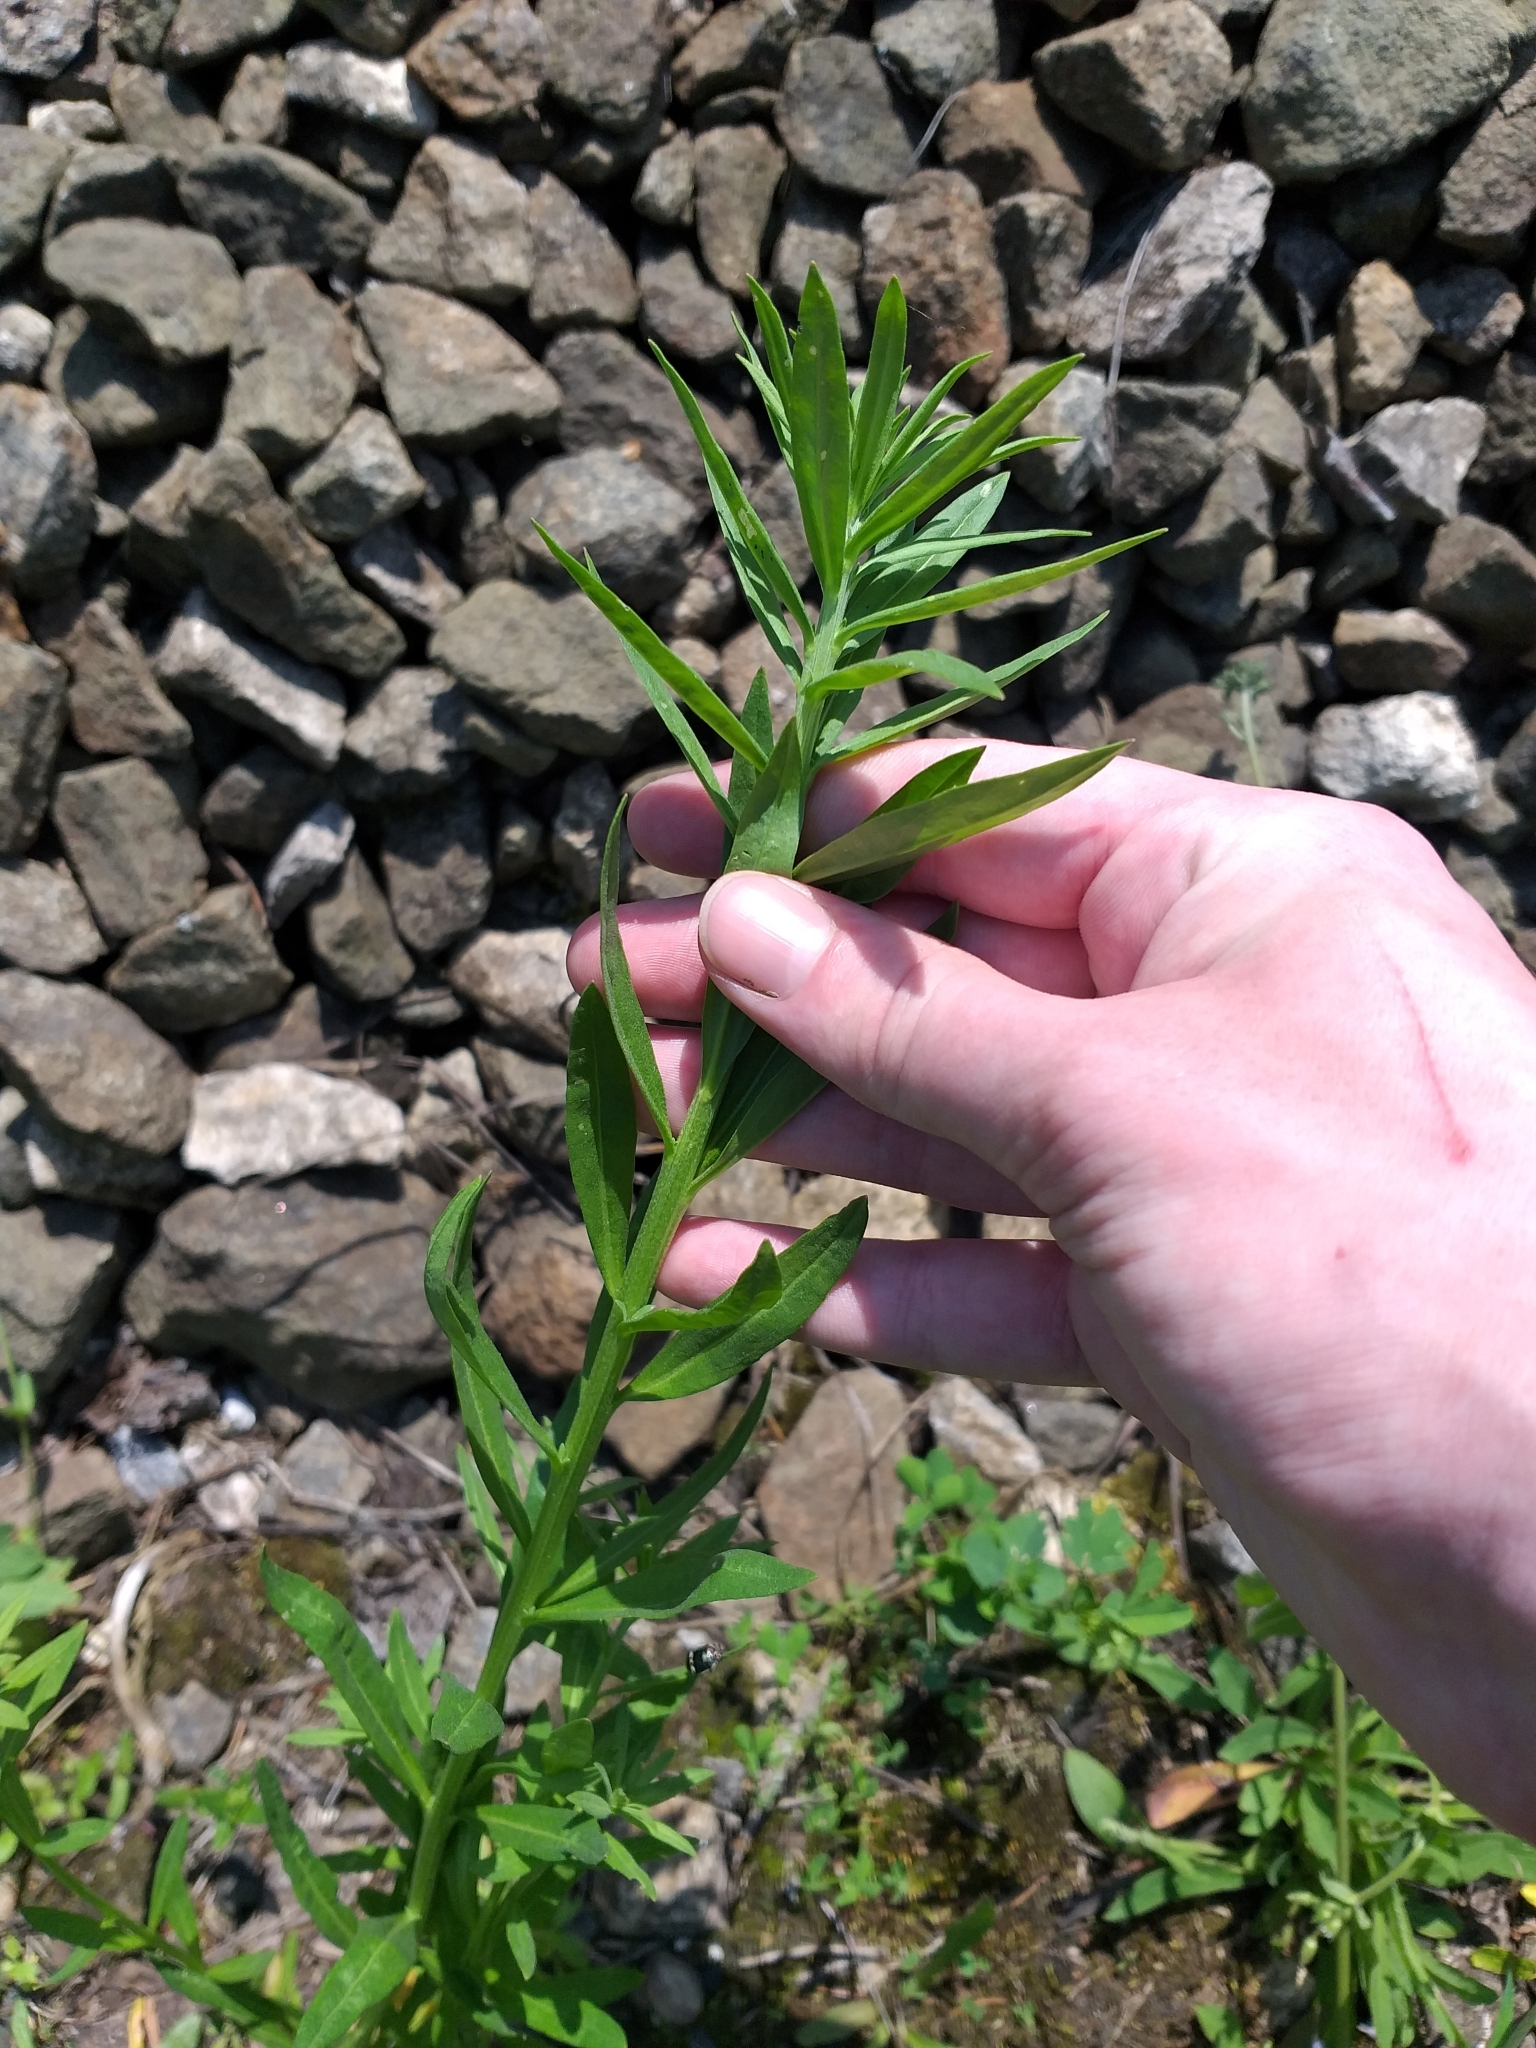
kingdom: Plantae
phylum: Tracheophyta
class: Magnoliopsida
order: Brassicales
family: Brassicaceae
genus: Erysimum
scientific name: Erysimum hieraciifolium
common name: European wallflower
